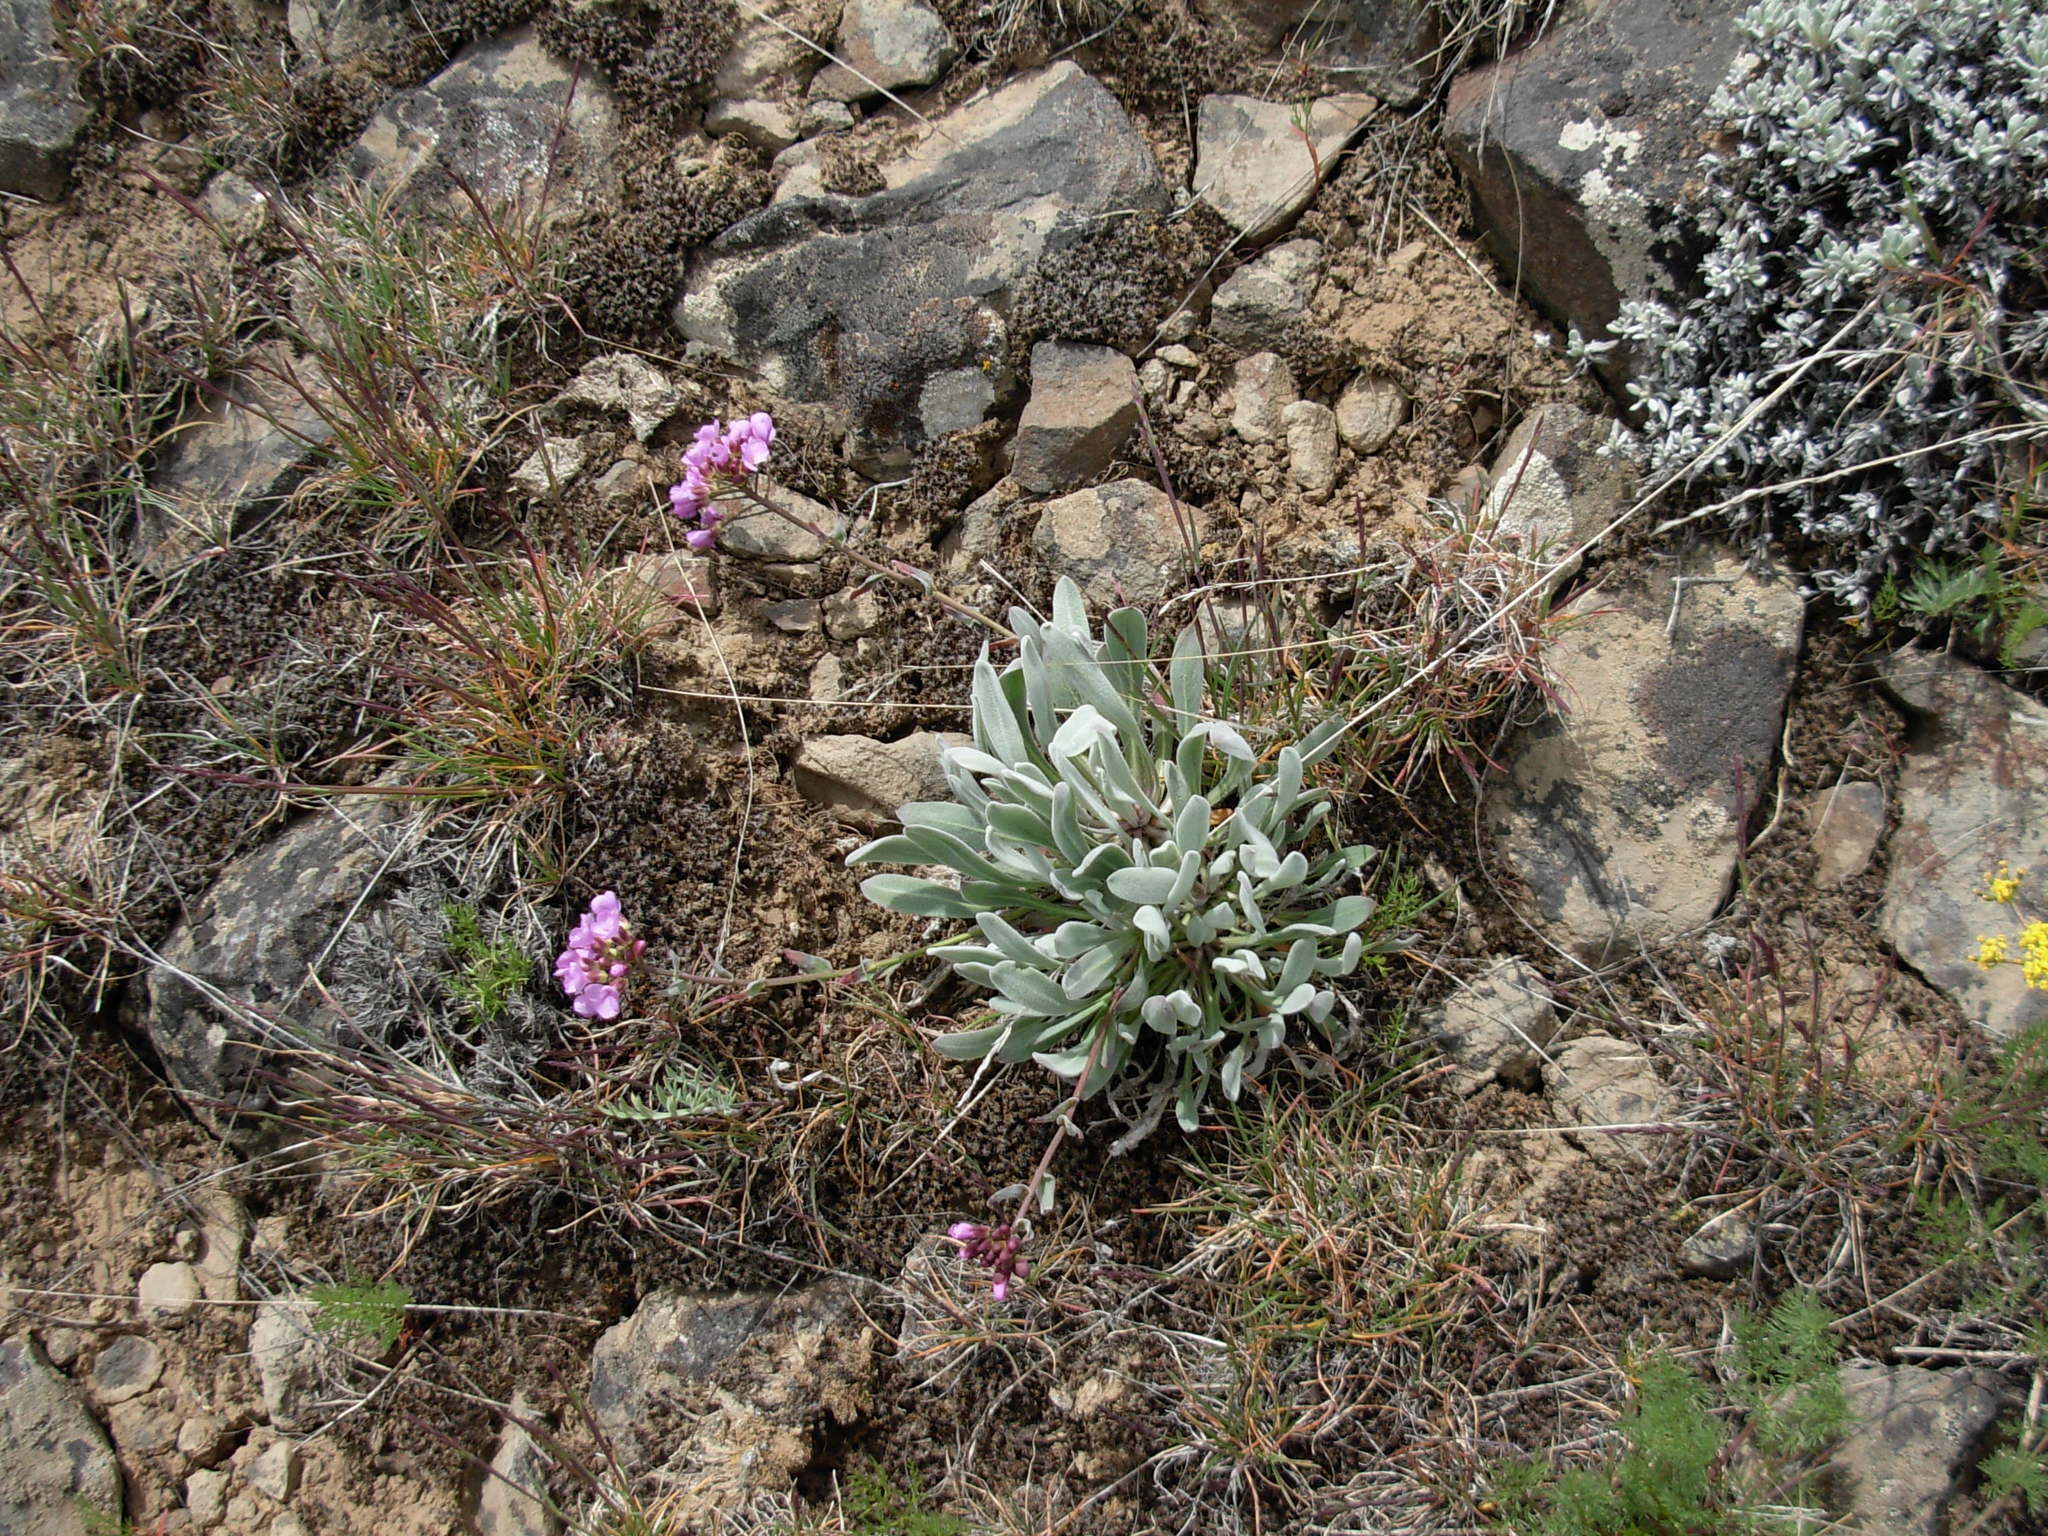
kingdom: Plantae
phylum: Tracheophyta
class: Magnoliopsida
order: Brassicales
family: Brassicaceae
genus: Phoenicaulis
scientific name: Phoenicaulis cheiranthoides
